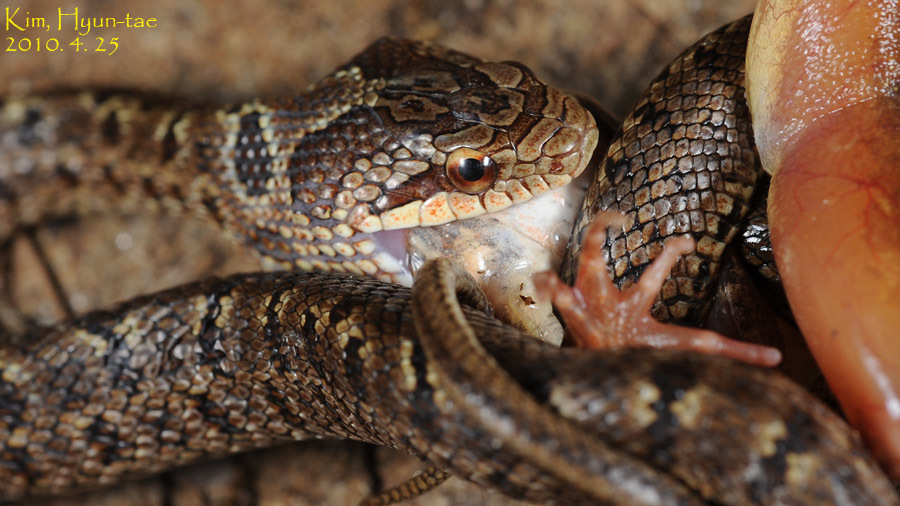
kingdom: Animalia
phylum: Chordata
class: Squamata
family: Colubridae
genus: Elaphe
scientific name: Elaphe dione
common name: Dione ratsnake
